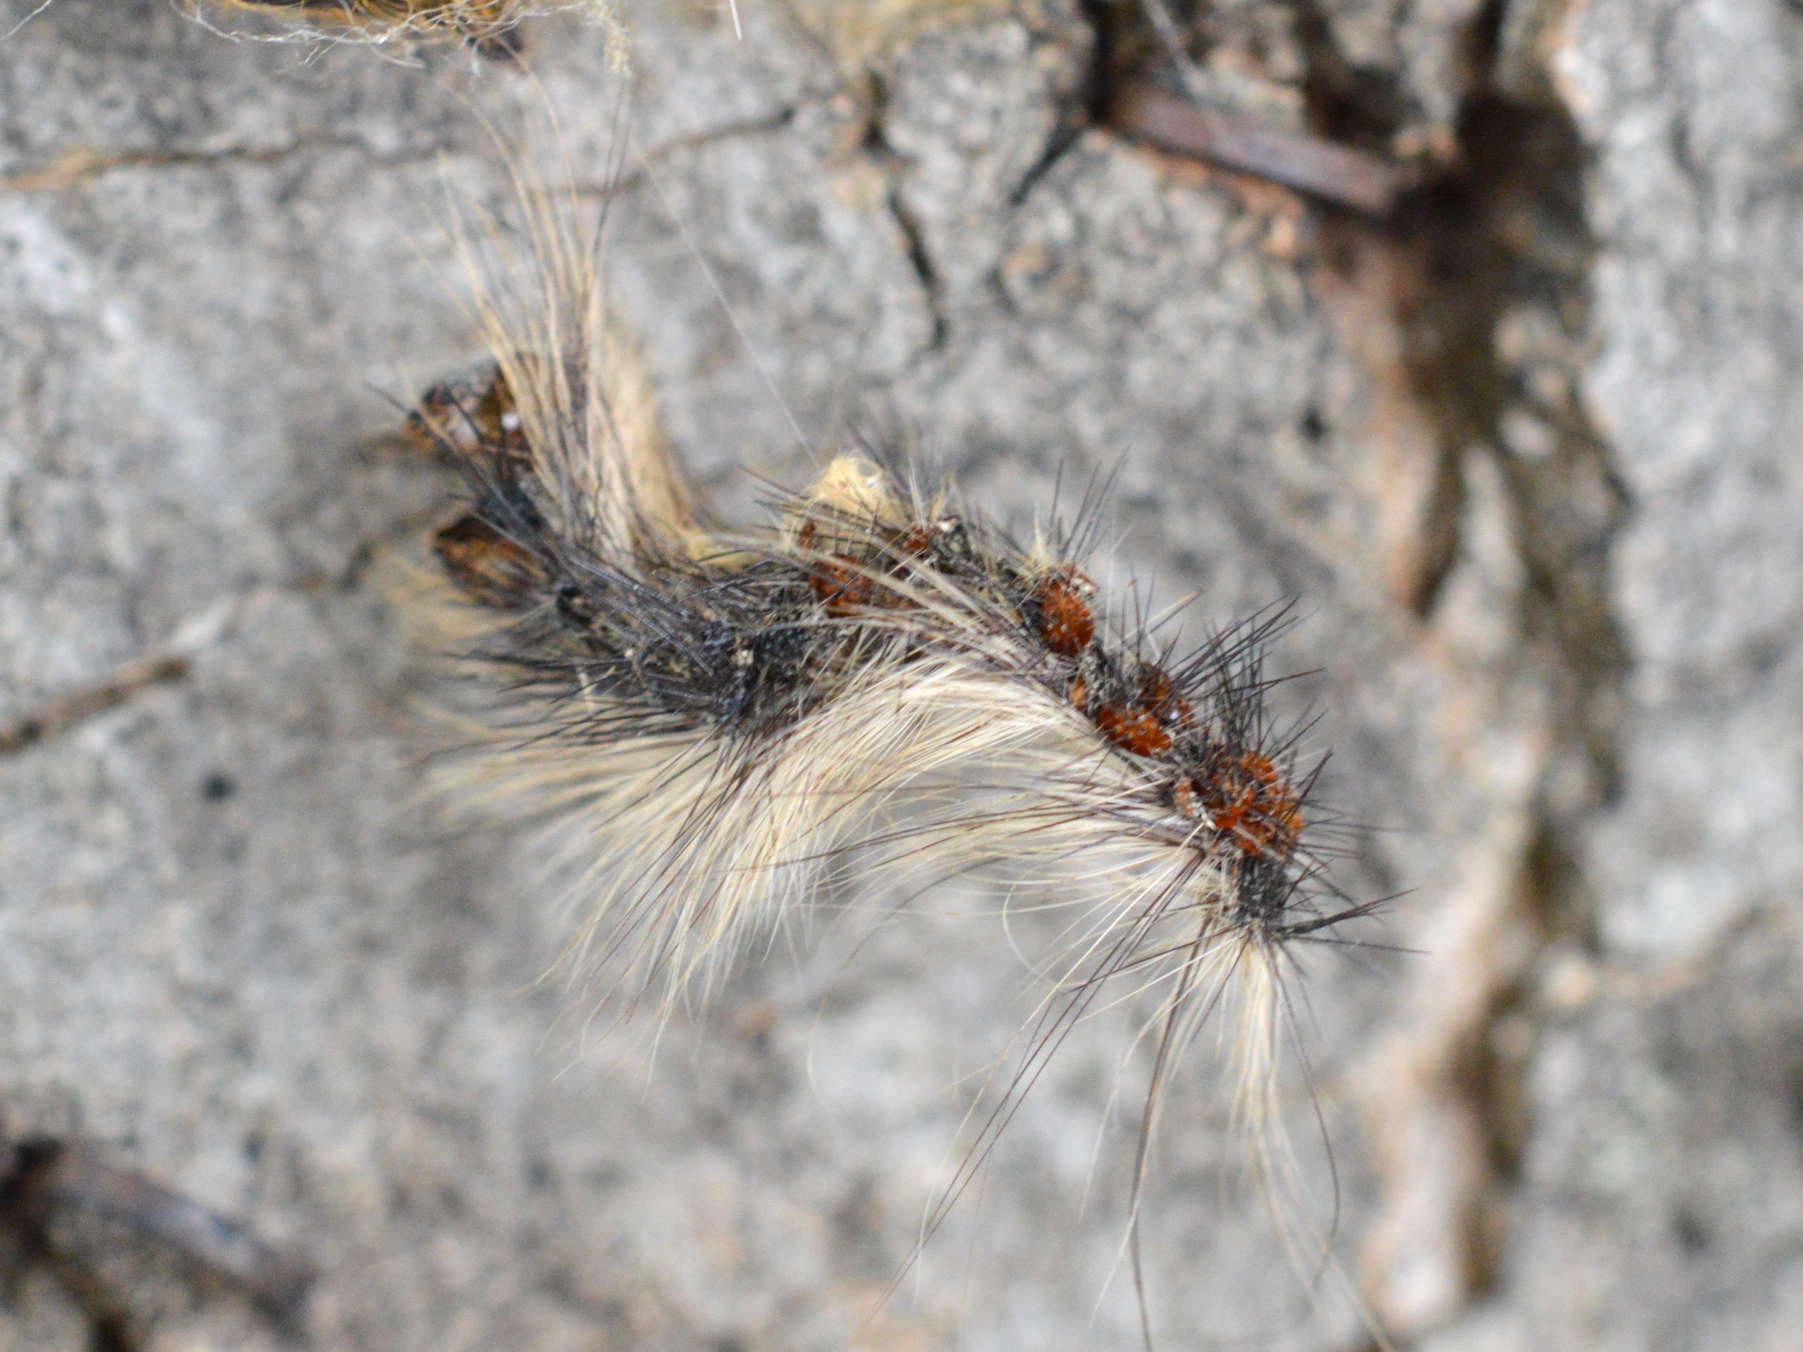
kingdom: Animalia
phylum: Arthropoda
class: Insecta
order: Lepidoptera
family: Erebidae
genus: Lymantria
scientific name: Lymantria dispar
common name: Gypsy moth
